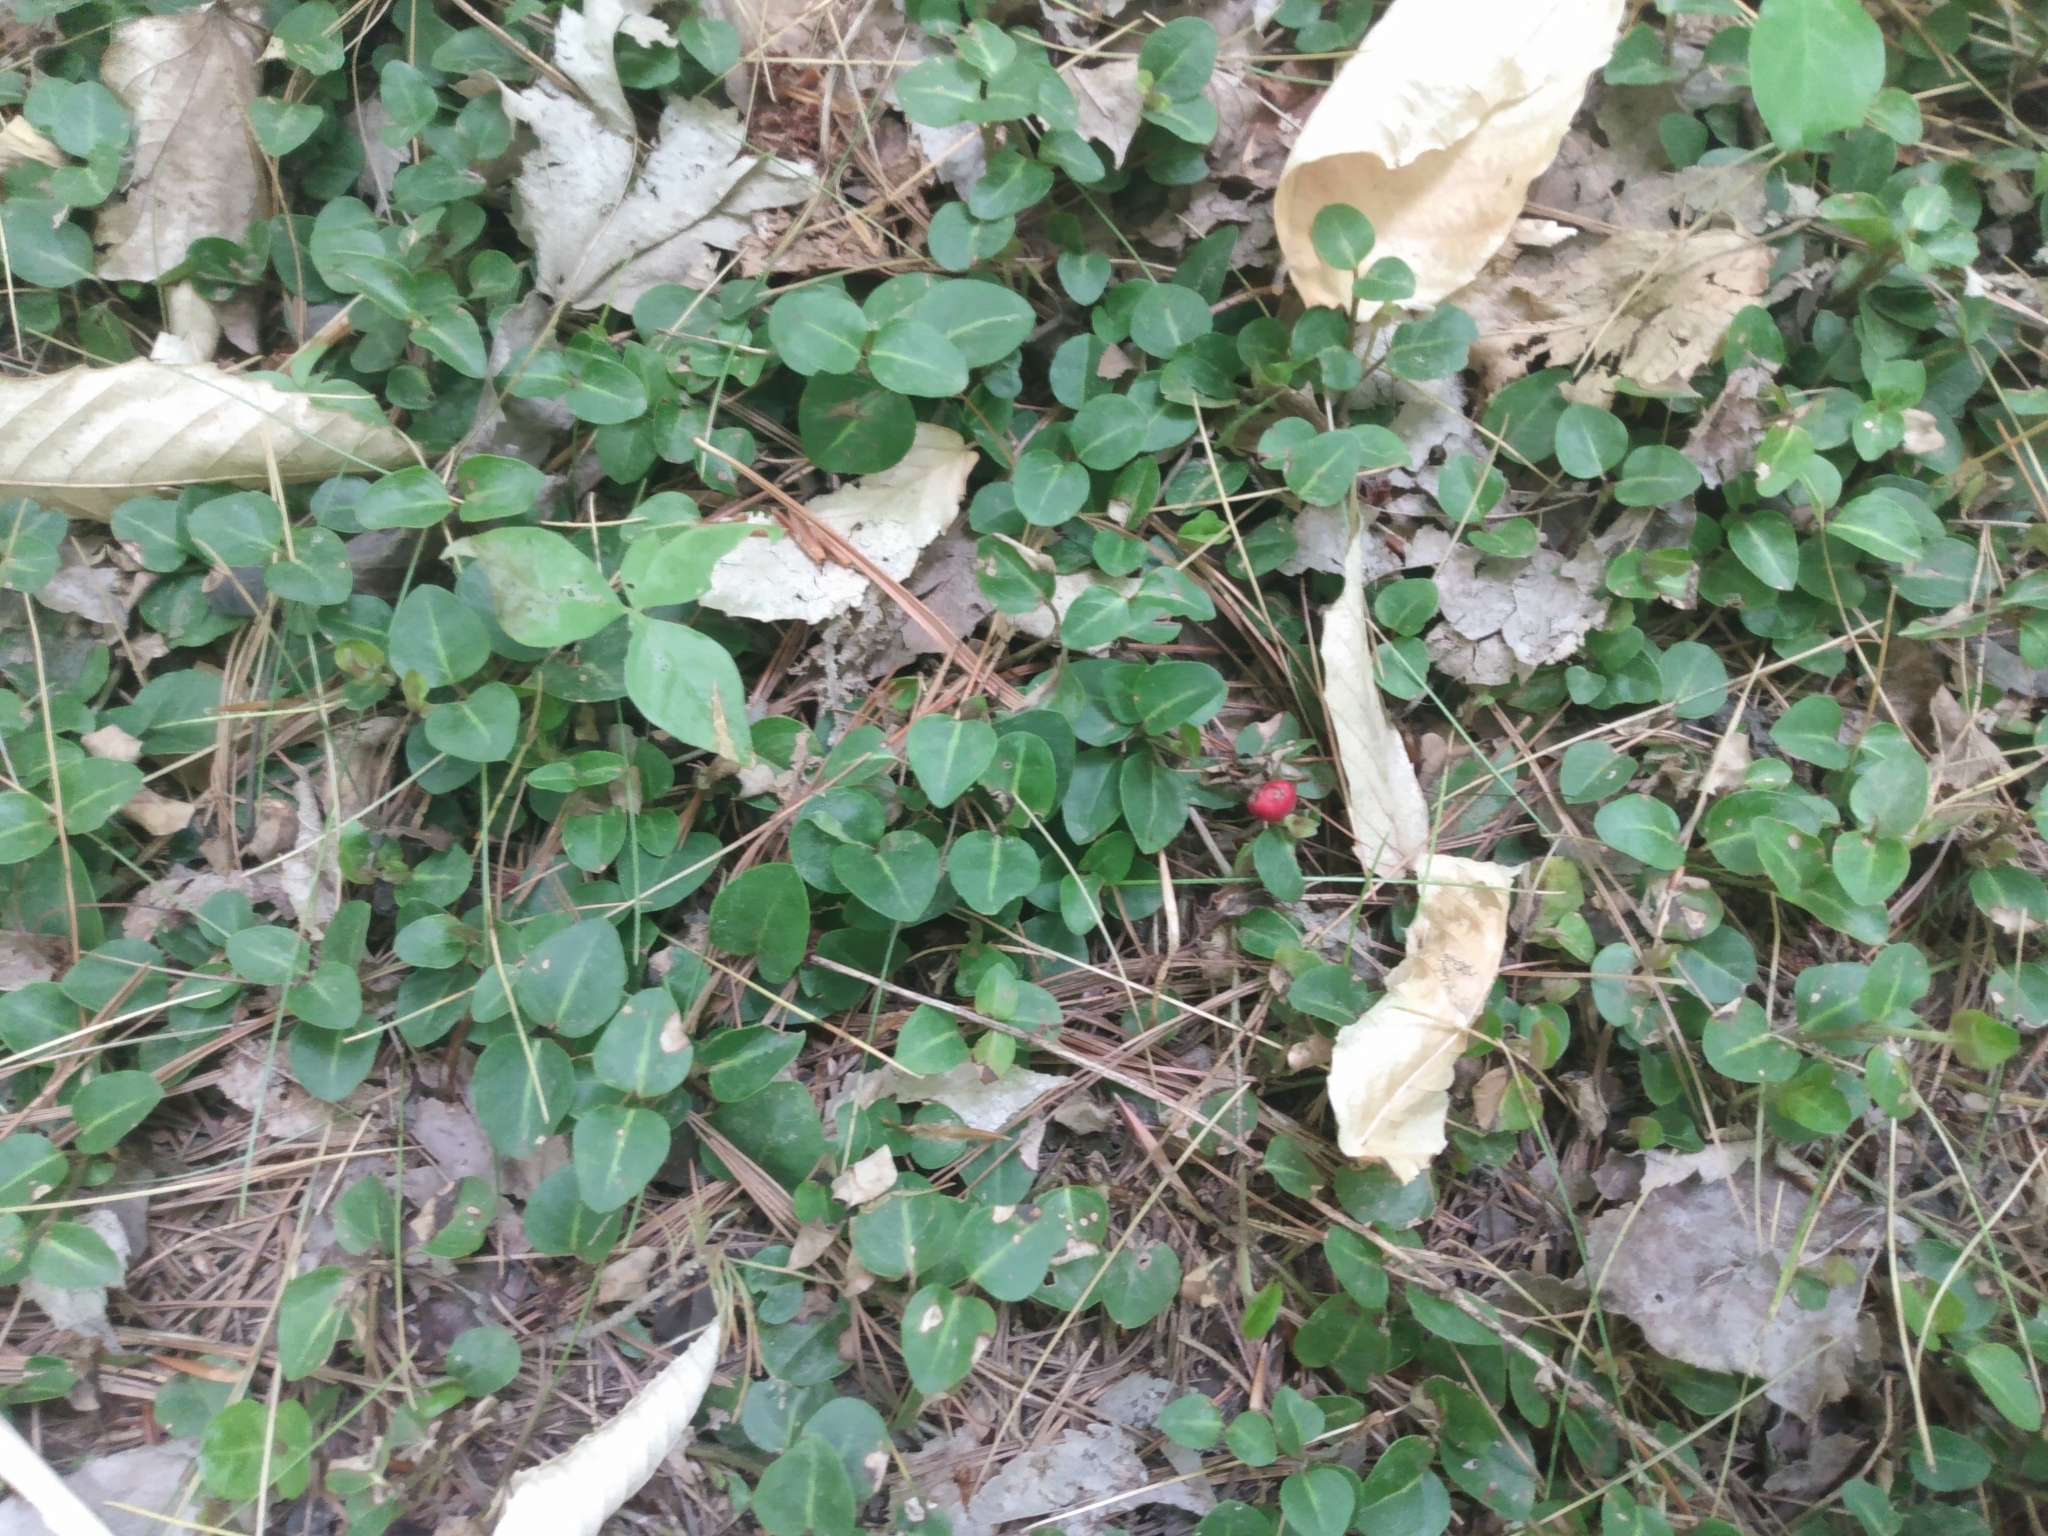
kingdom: Plantae
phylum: Tracheophyta
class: Magnoliopsida
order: Gentianales
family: Rubiaceae
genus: Mitchella
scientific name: Mitchella repens
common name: Partridge-berry
